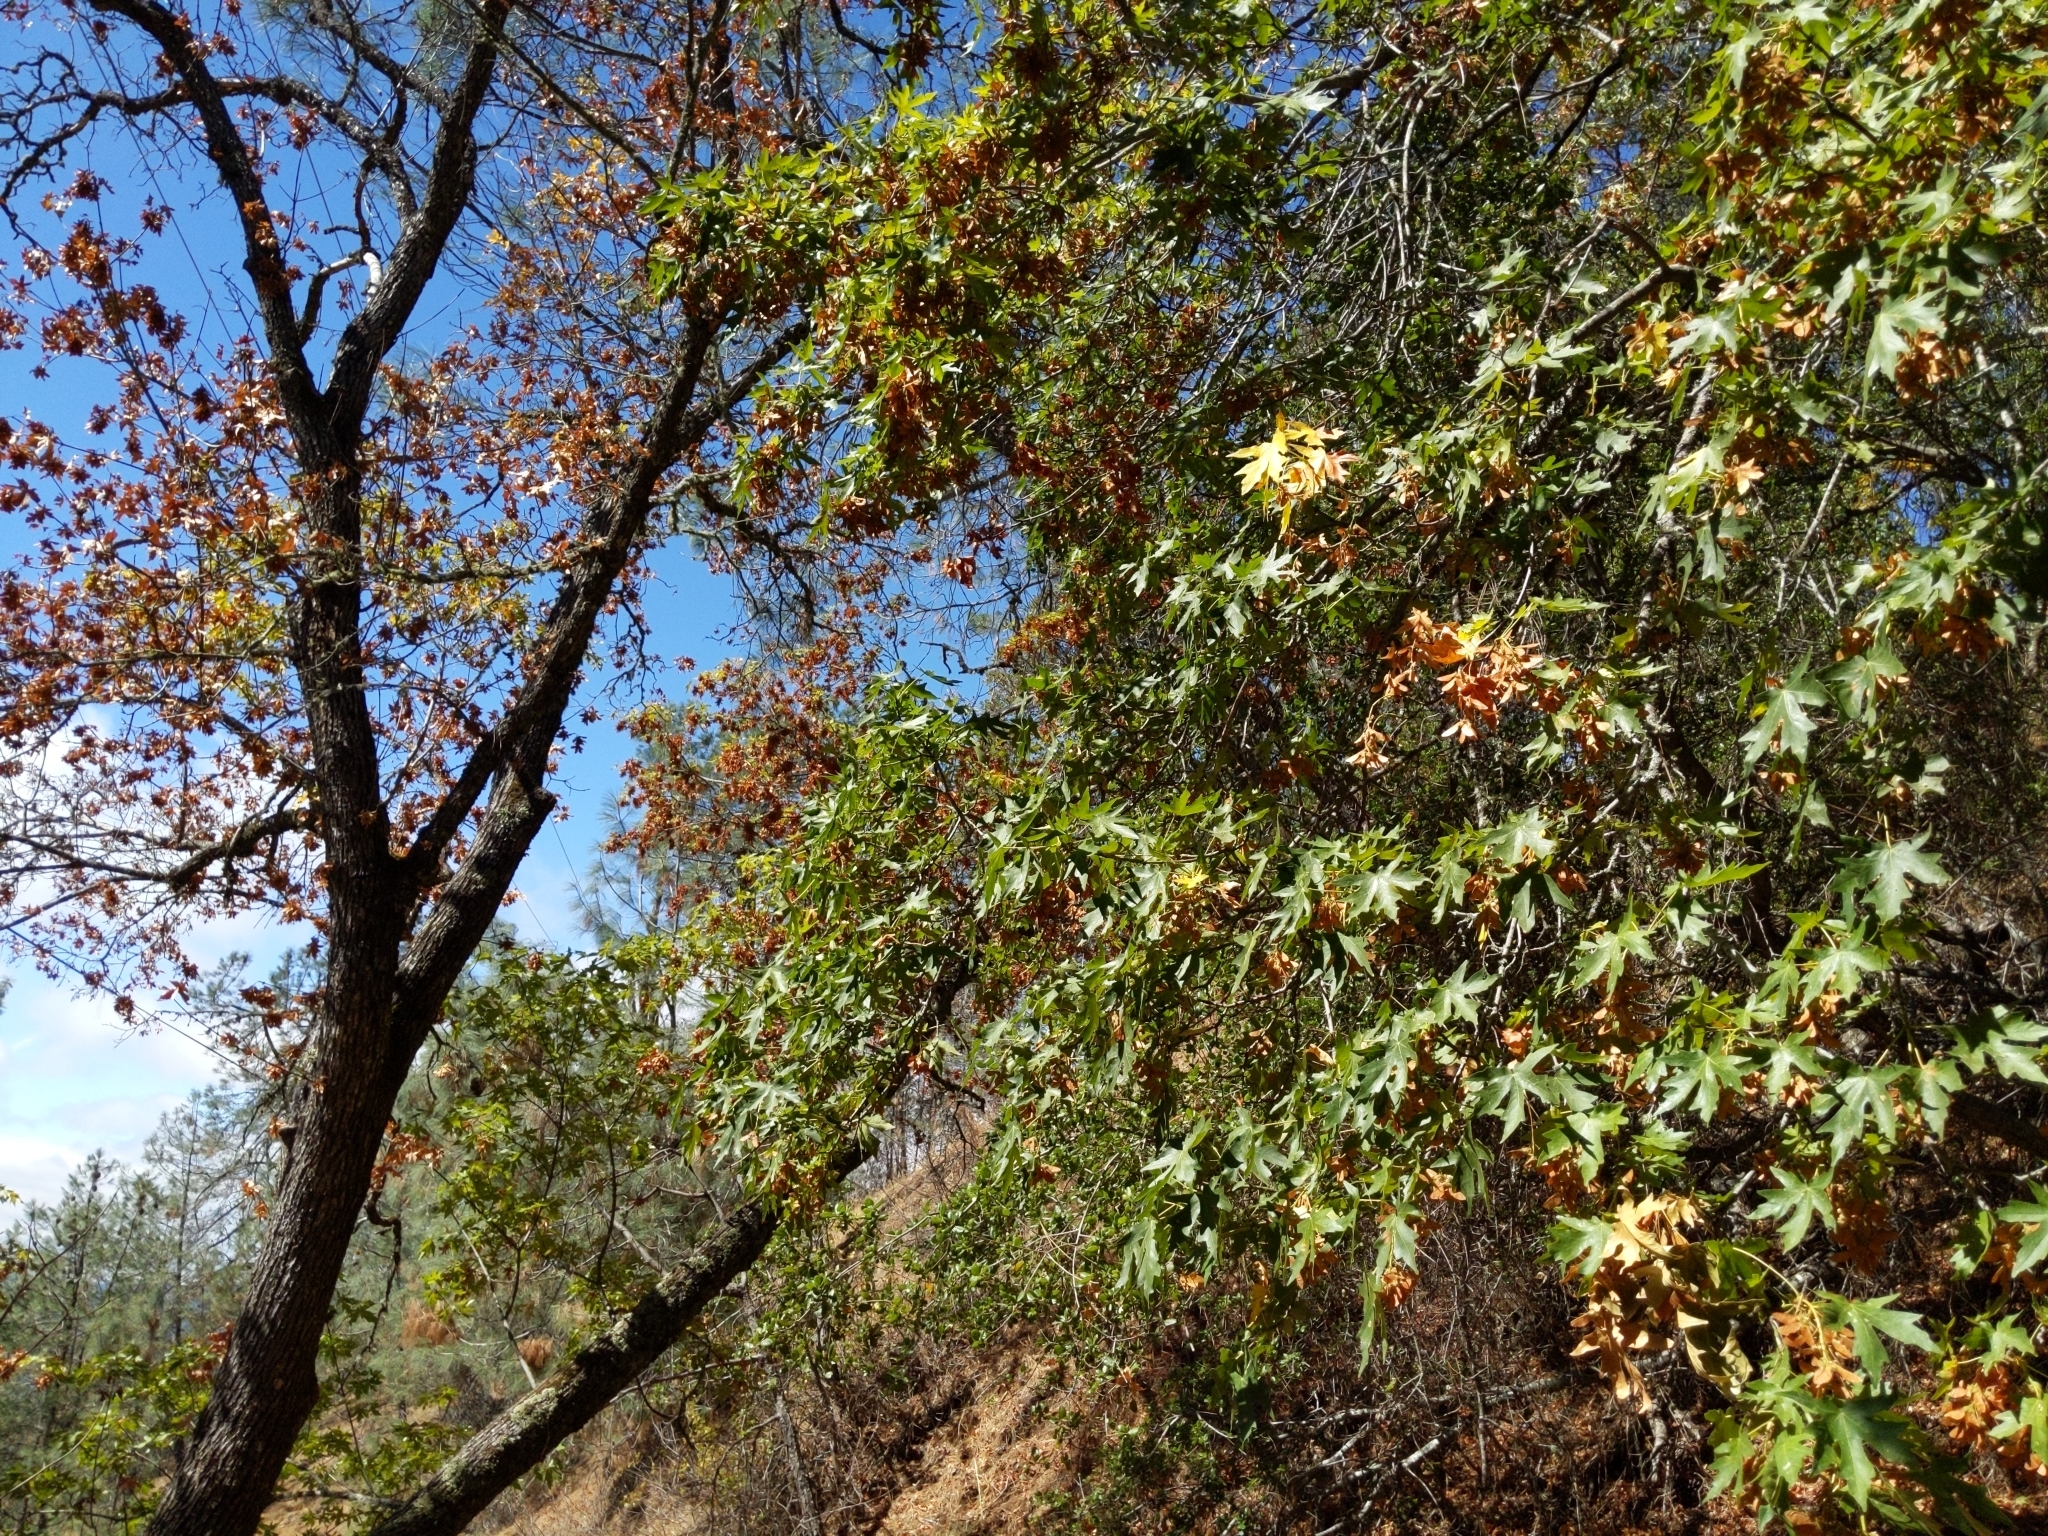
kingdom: Plantae
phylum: Tracheophyta
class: Magnoliopsida
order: Sapindales
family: Sapindaceae
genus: Acer
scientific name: Acer macrophyllum
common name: Oregon maple
